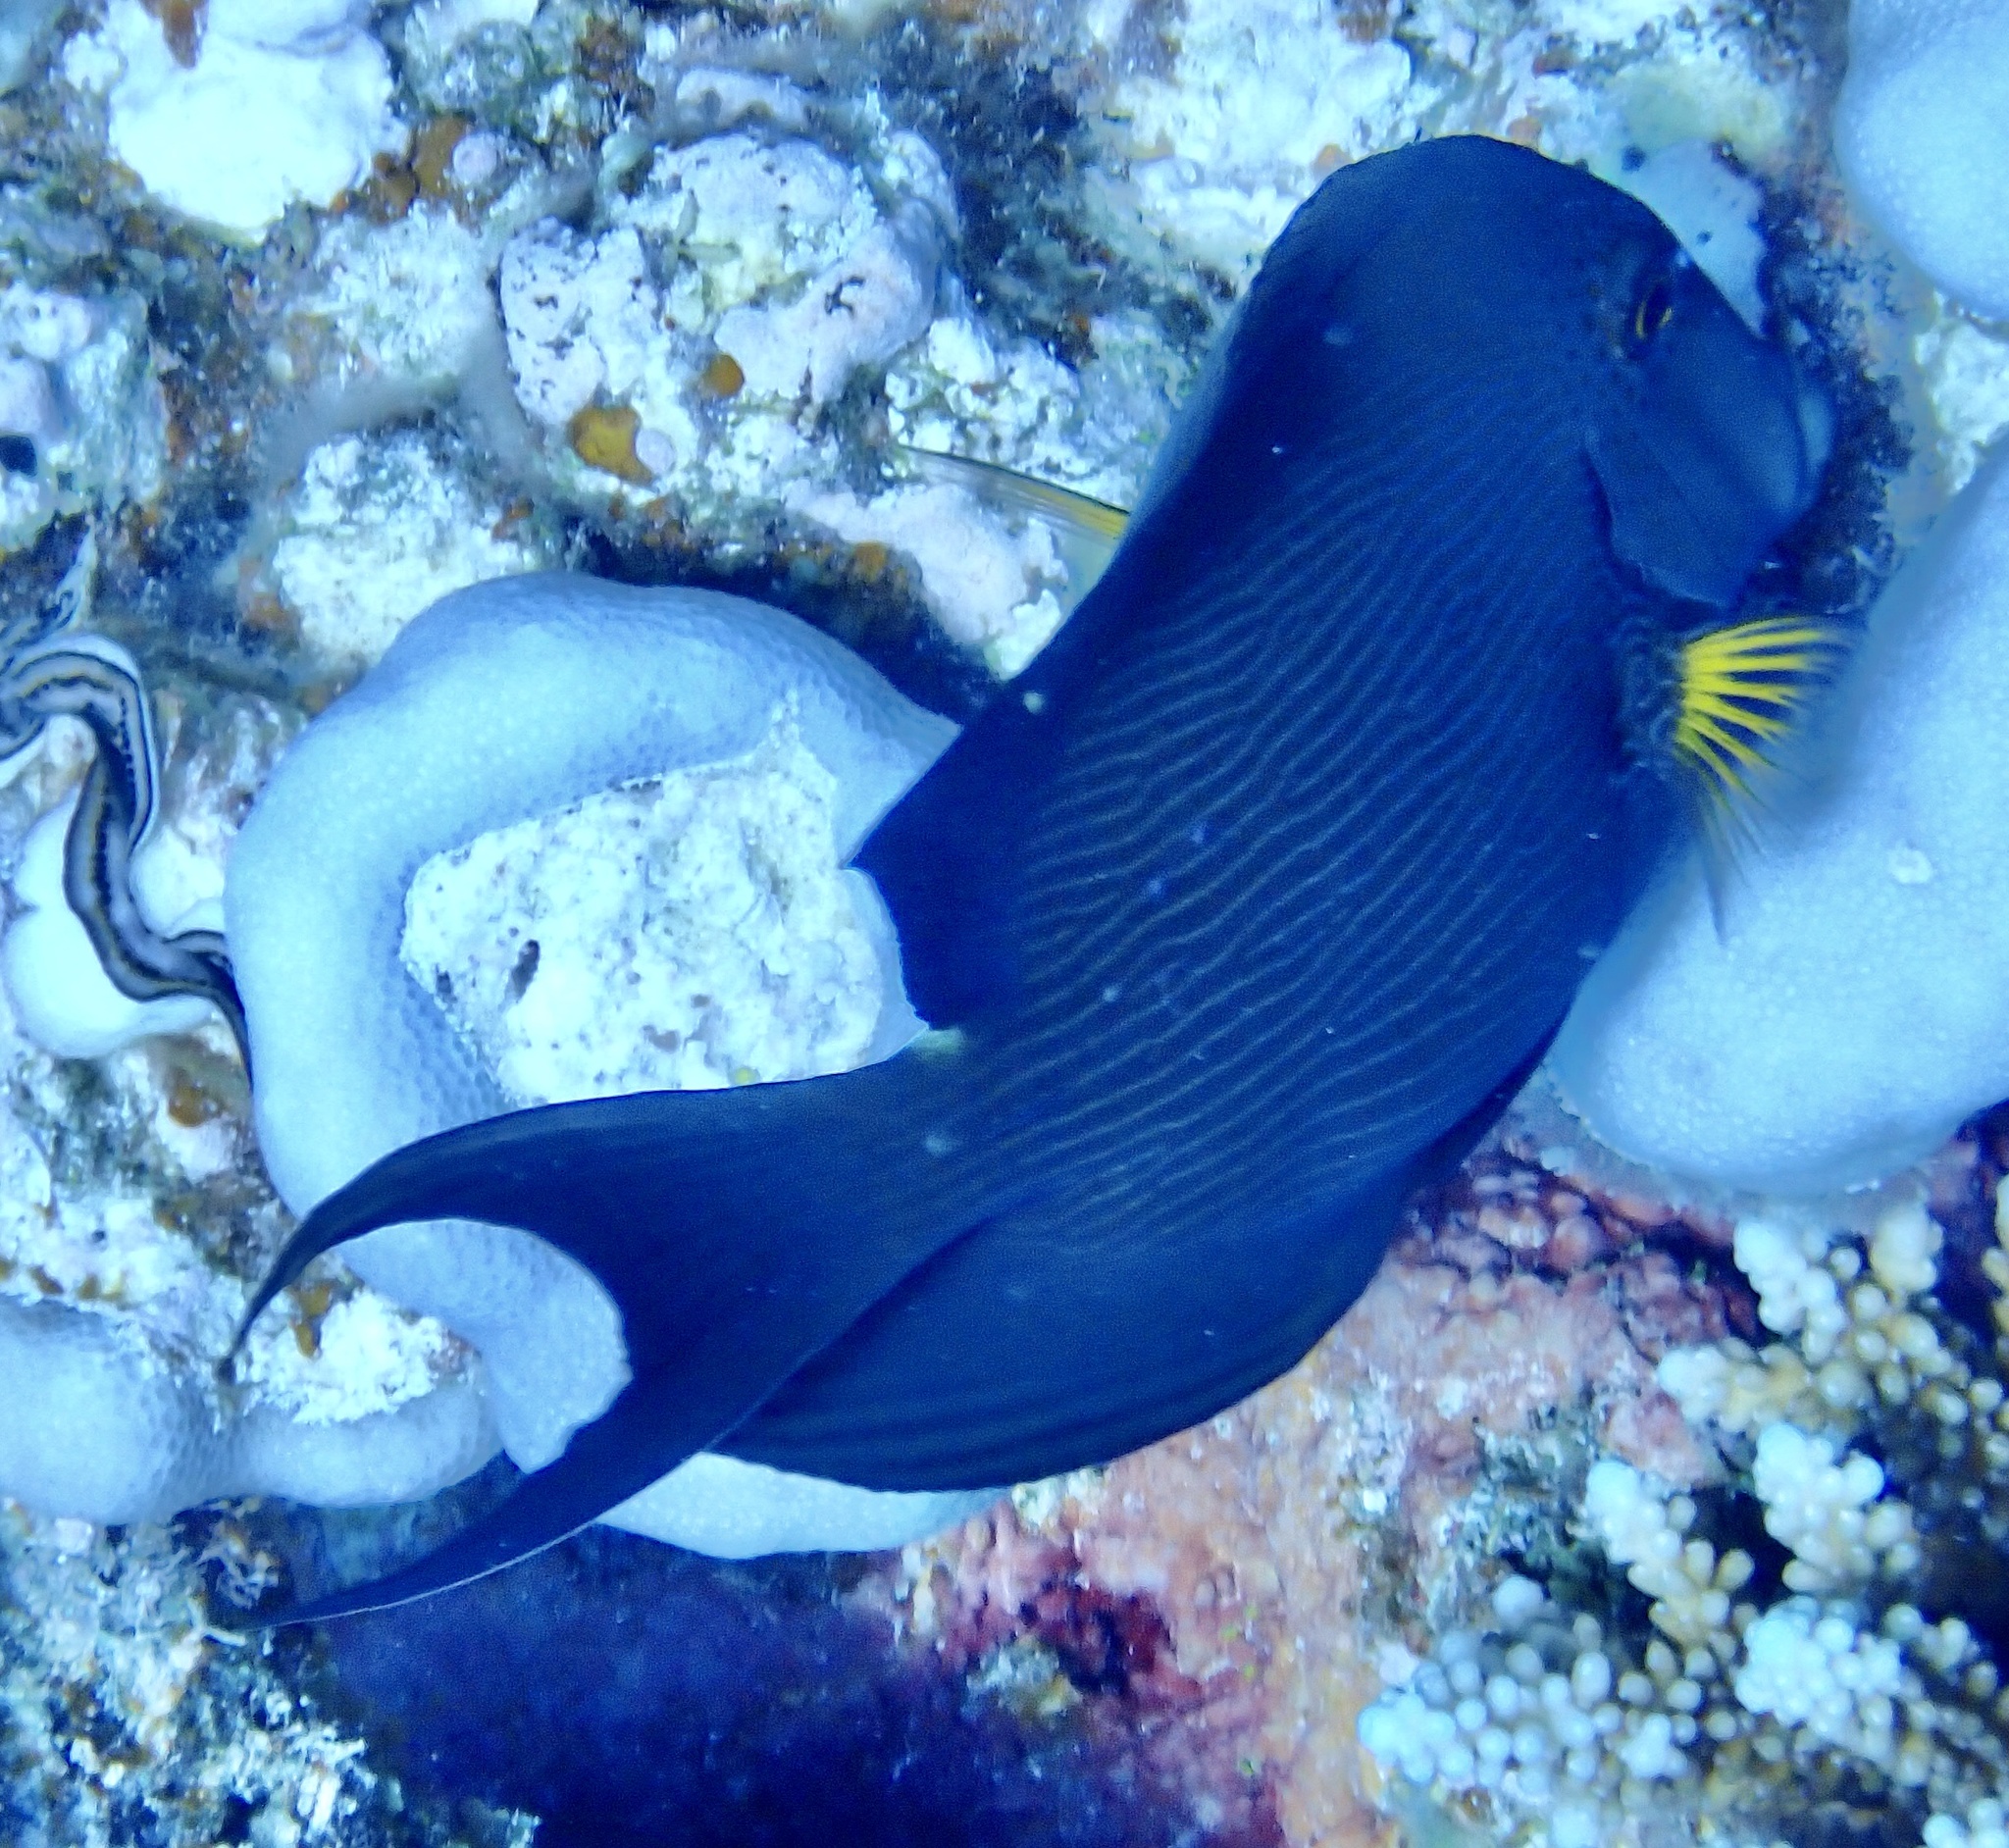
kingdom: Animalia
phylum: Chordata
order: Perciformes
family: Acanthuridae
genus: Ctenochaetus
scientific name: Ctenochaetus striatus
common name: Bristle-toothed surgeonfish
